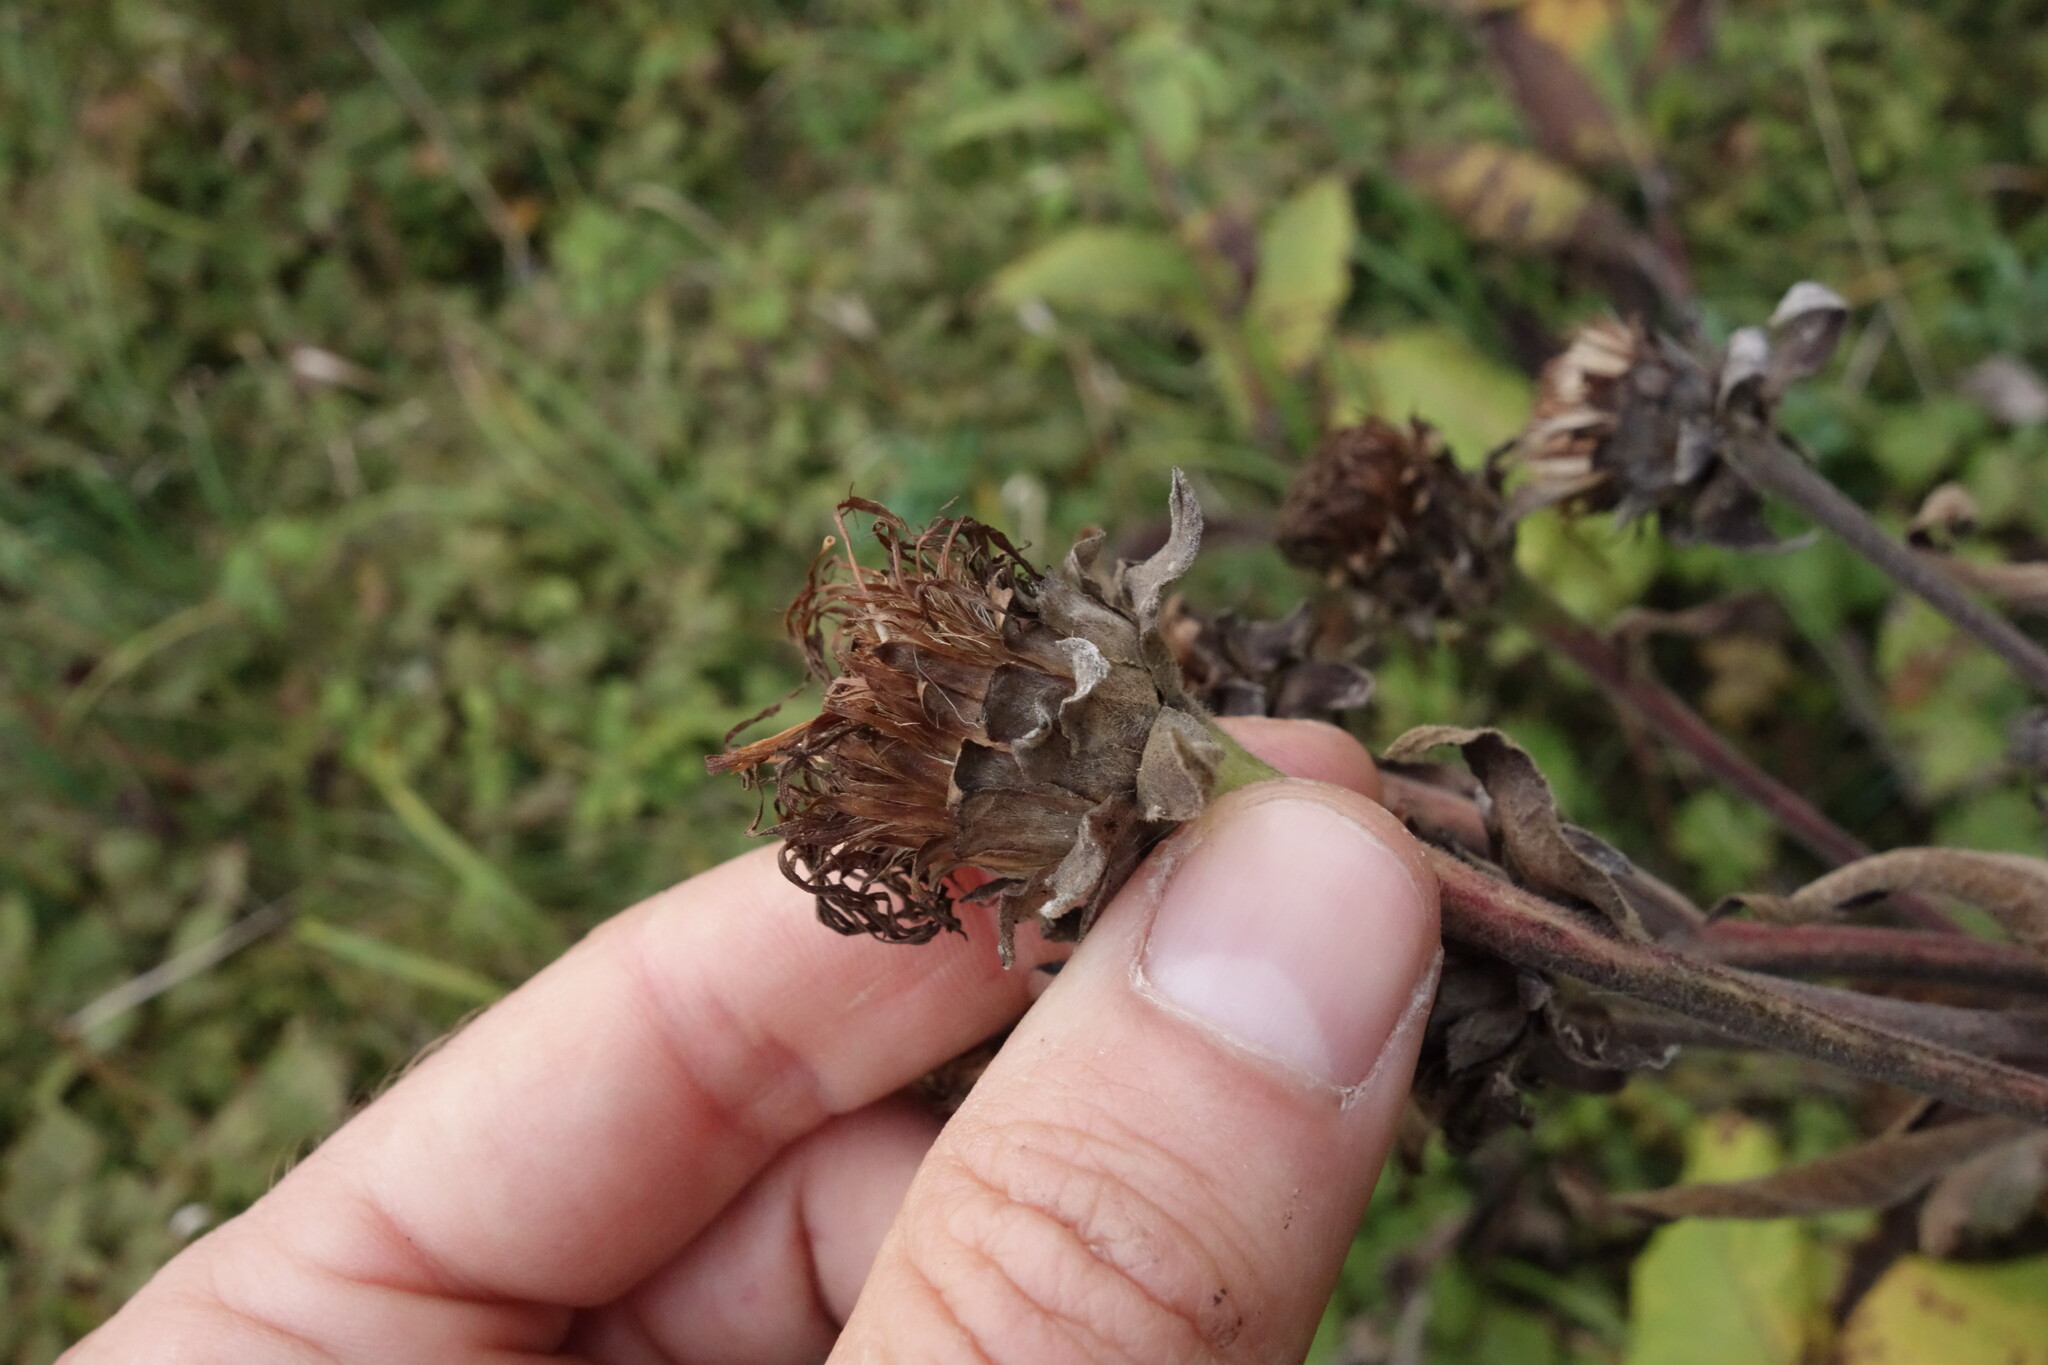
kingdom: Plantae
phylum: Tracheophyta
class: Magnoliopsida
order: Asterales
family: Asteraceae
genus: Inula
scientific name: Inula helenium
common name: Elecampane
